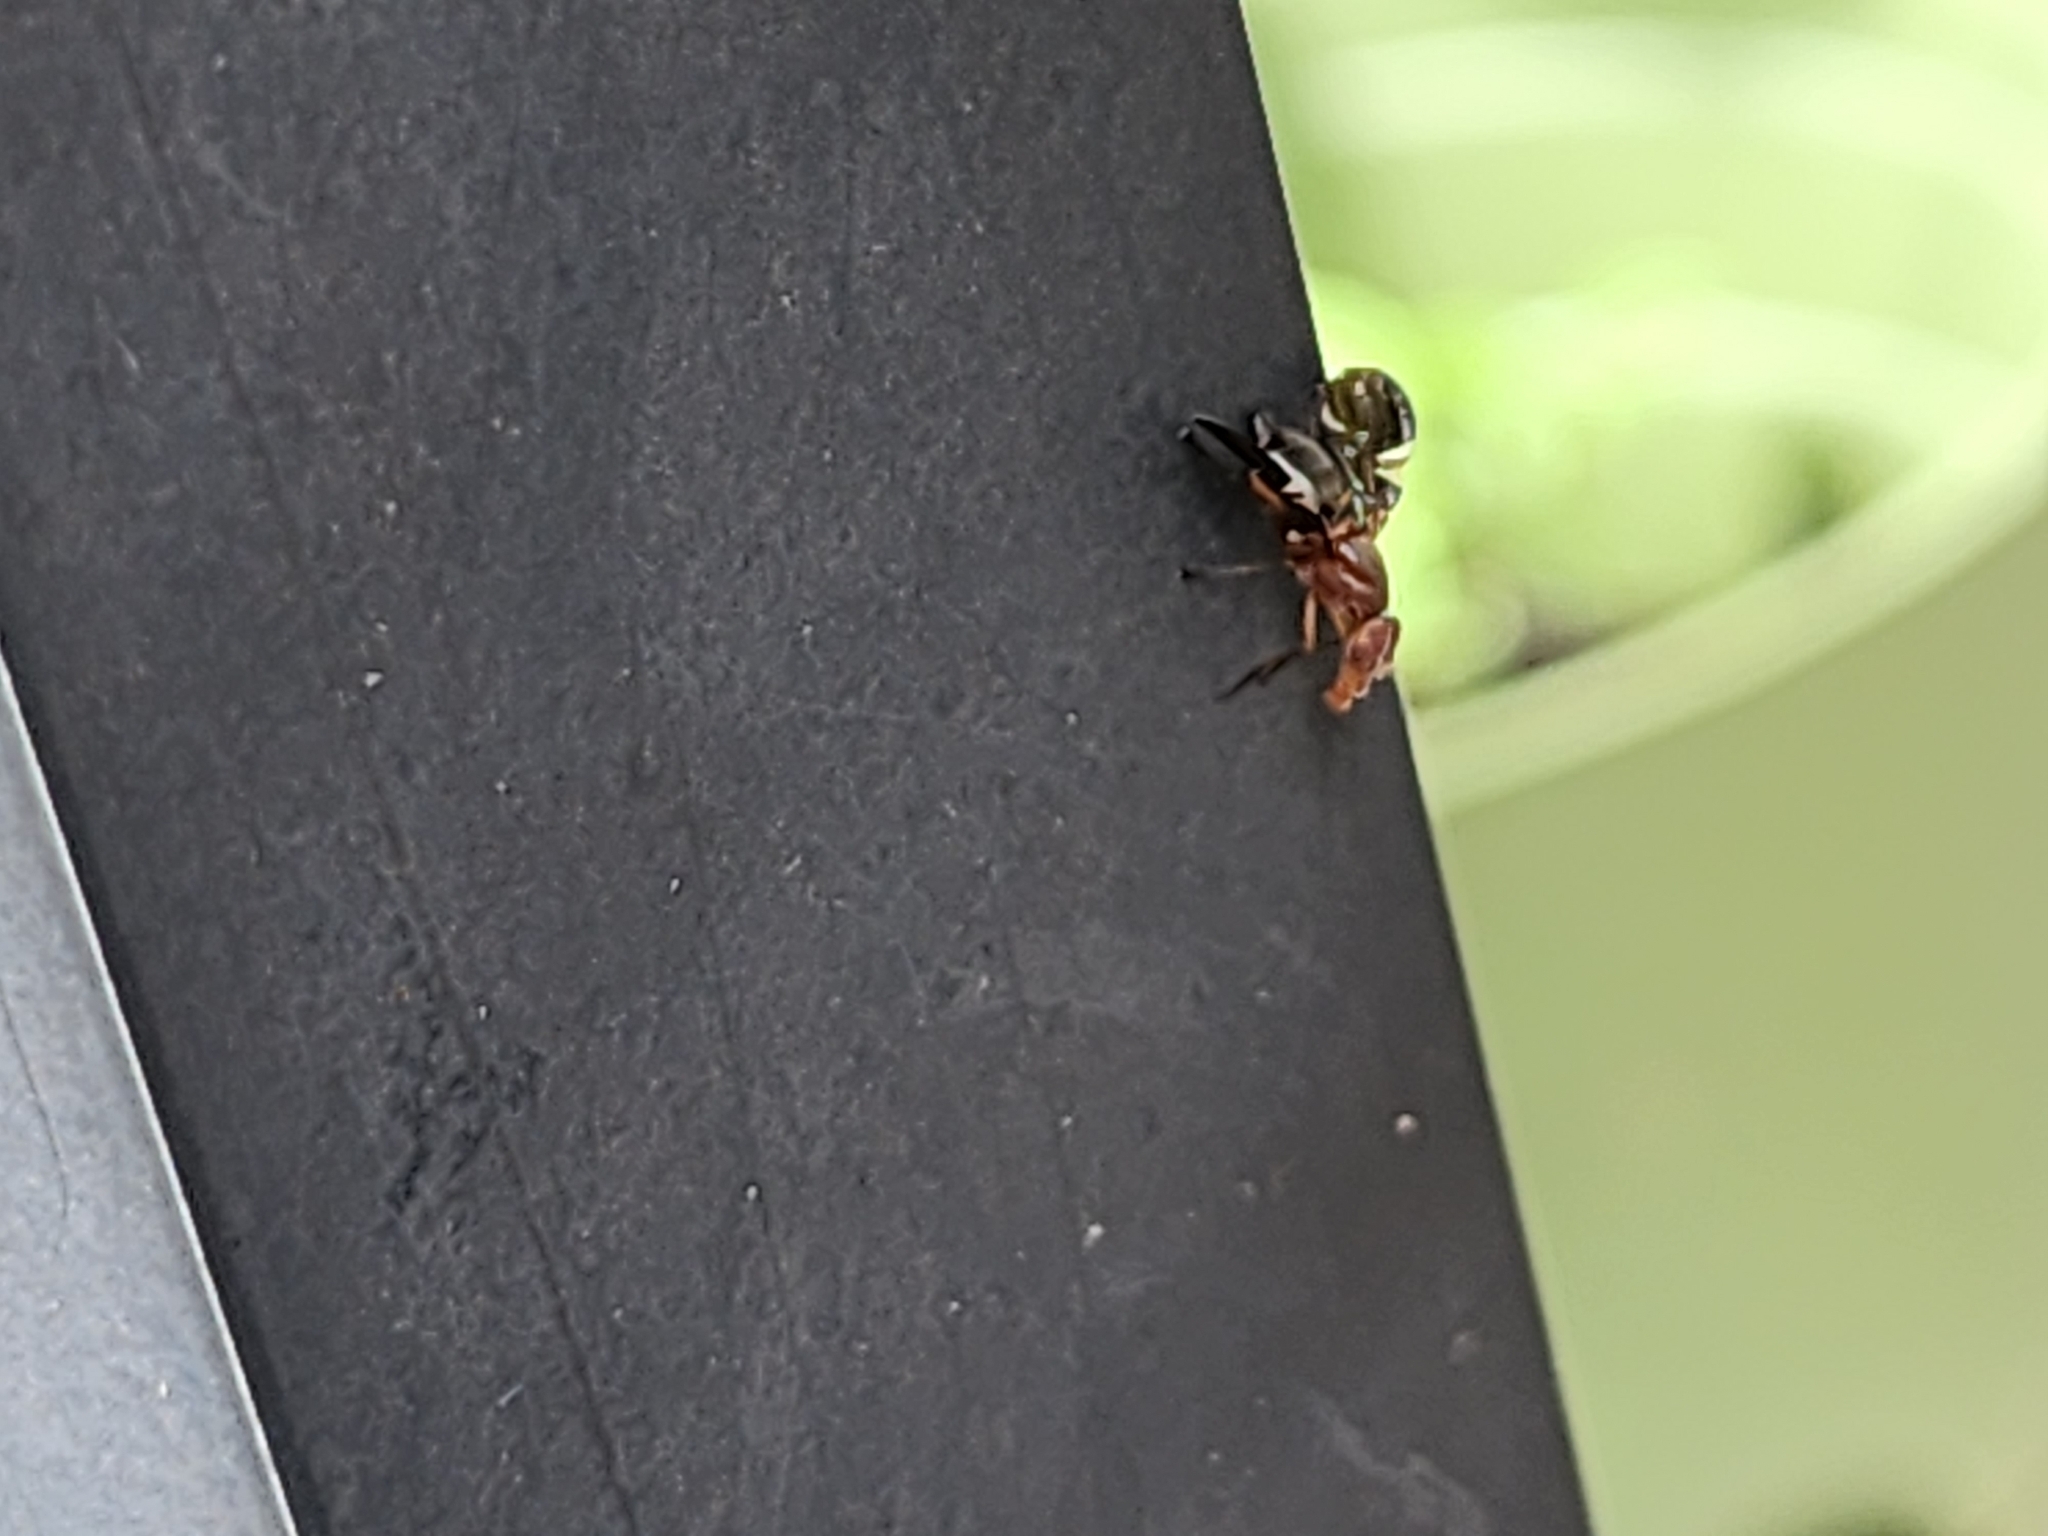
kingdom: Animalia
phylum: Arthropoda
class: Insecta
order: Diptera
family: Ulidiidae
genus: Delphinia
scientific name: Delphinia picta
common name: Common picture-winged fly
